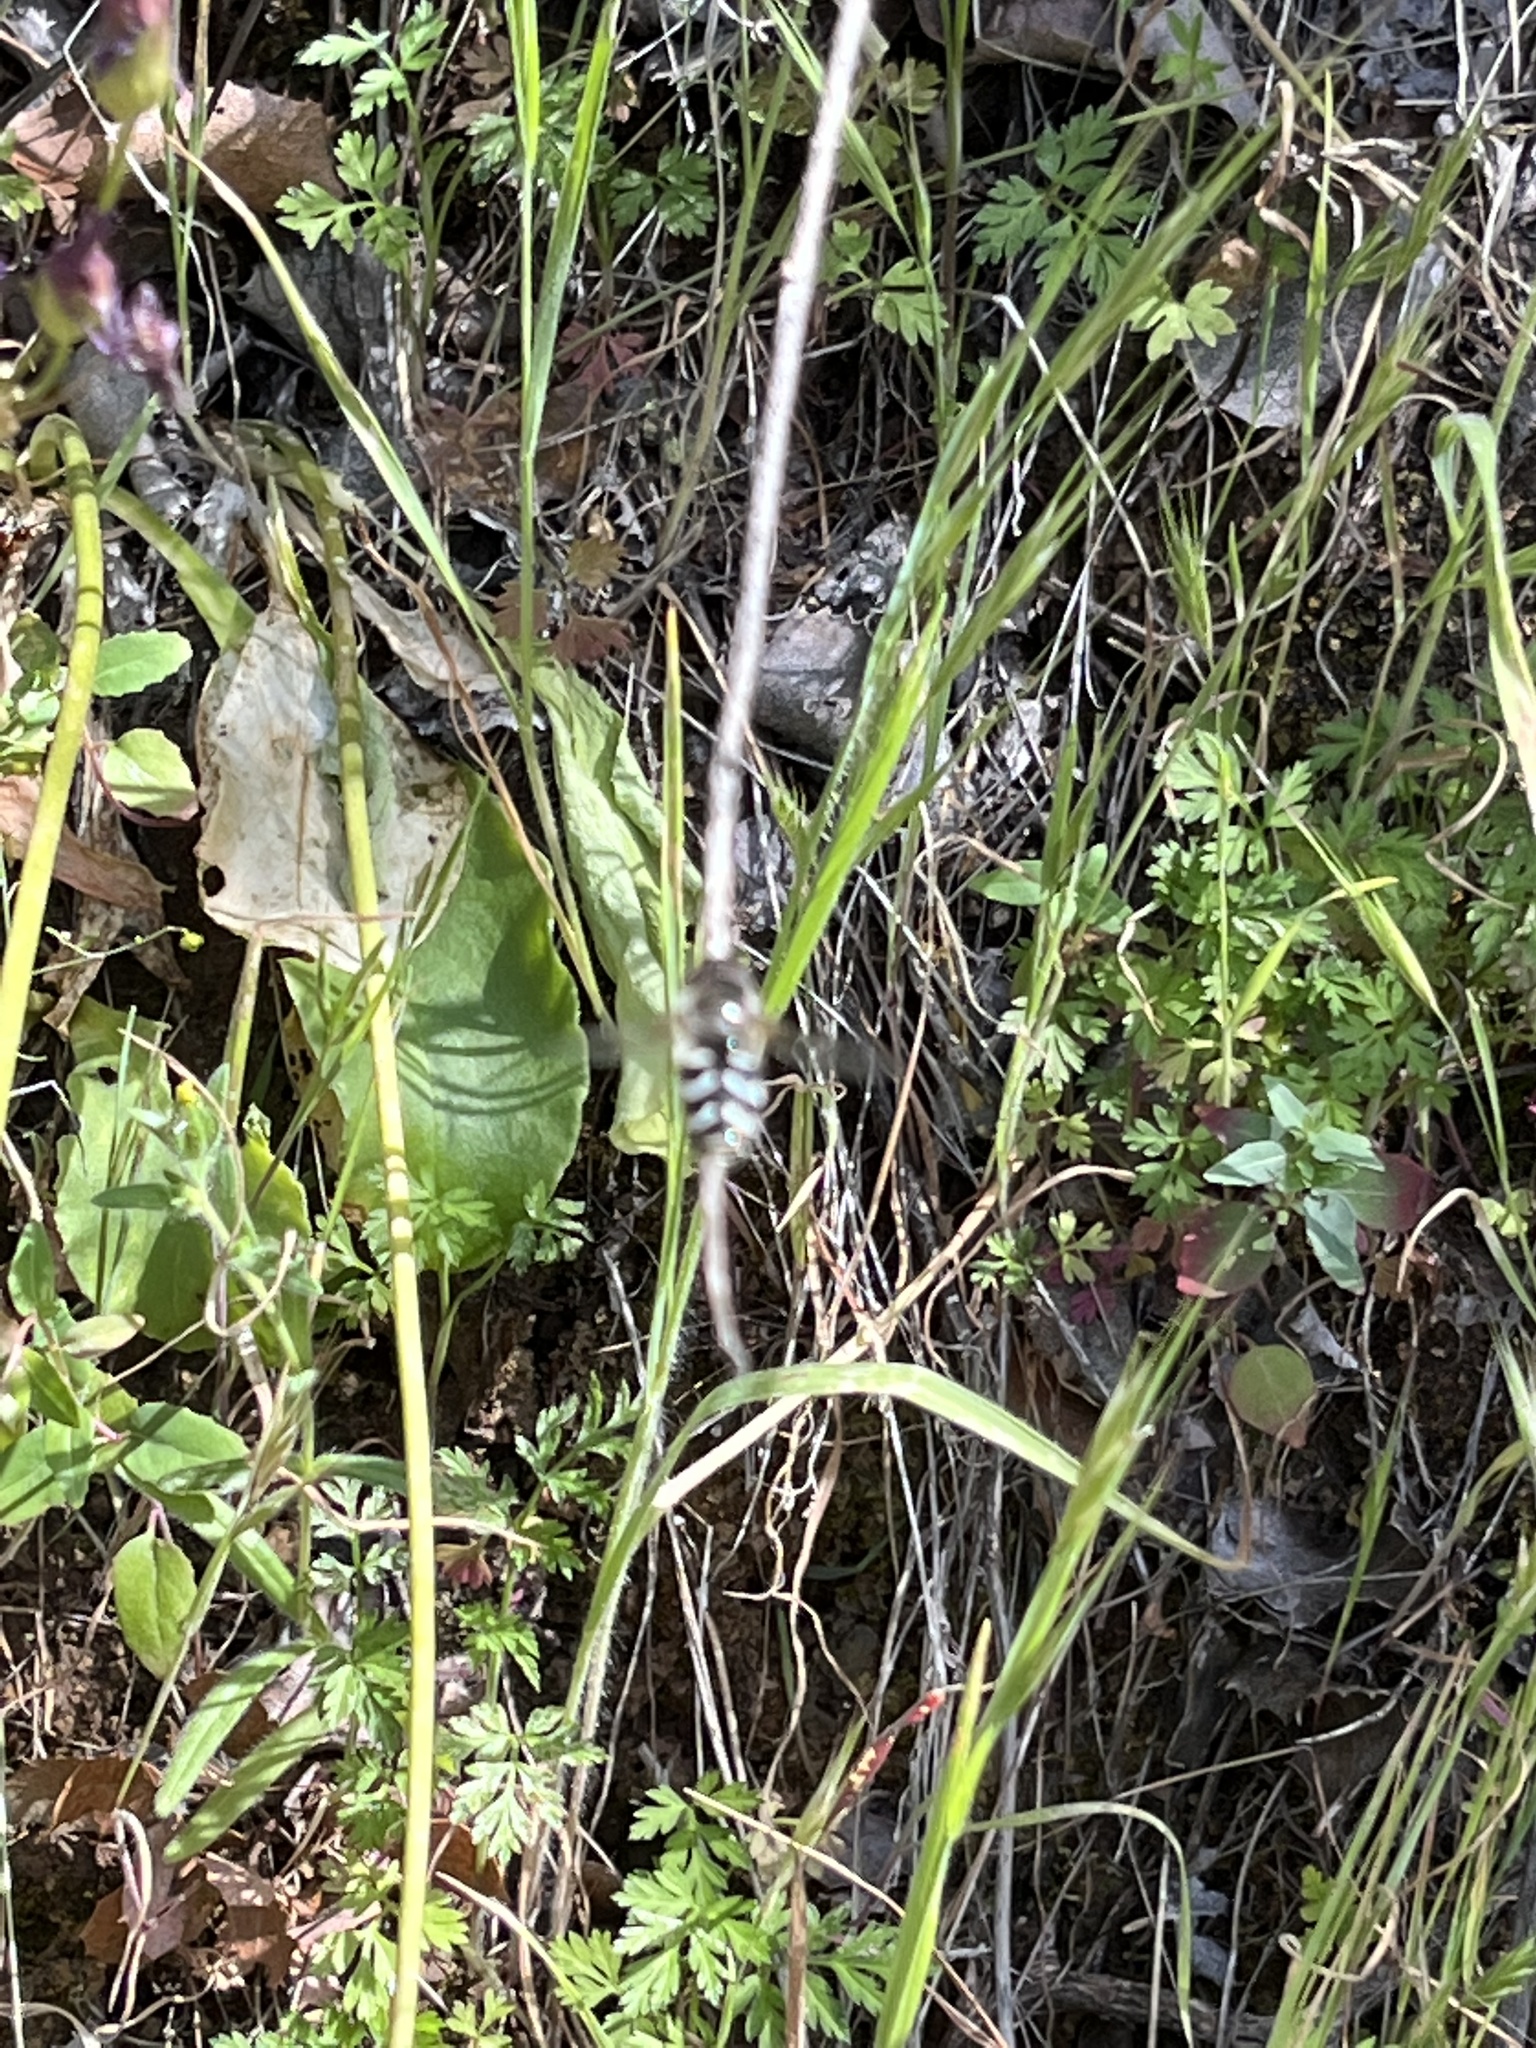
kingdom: Animalia
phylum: Arthropoda
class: Insecta
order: Diptera
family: Syrphidae
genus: Scaeva
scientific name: Scaeva affinis
